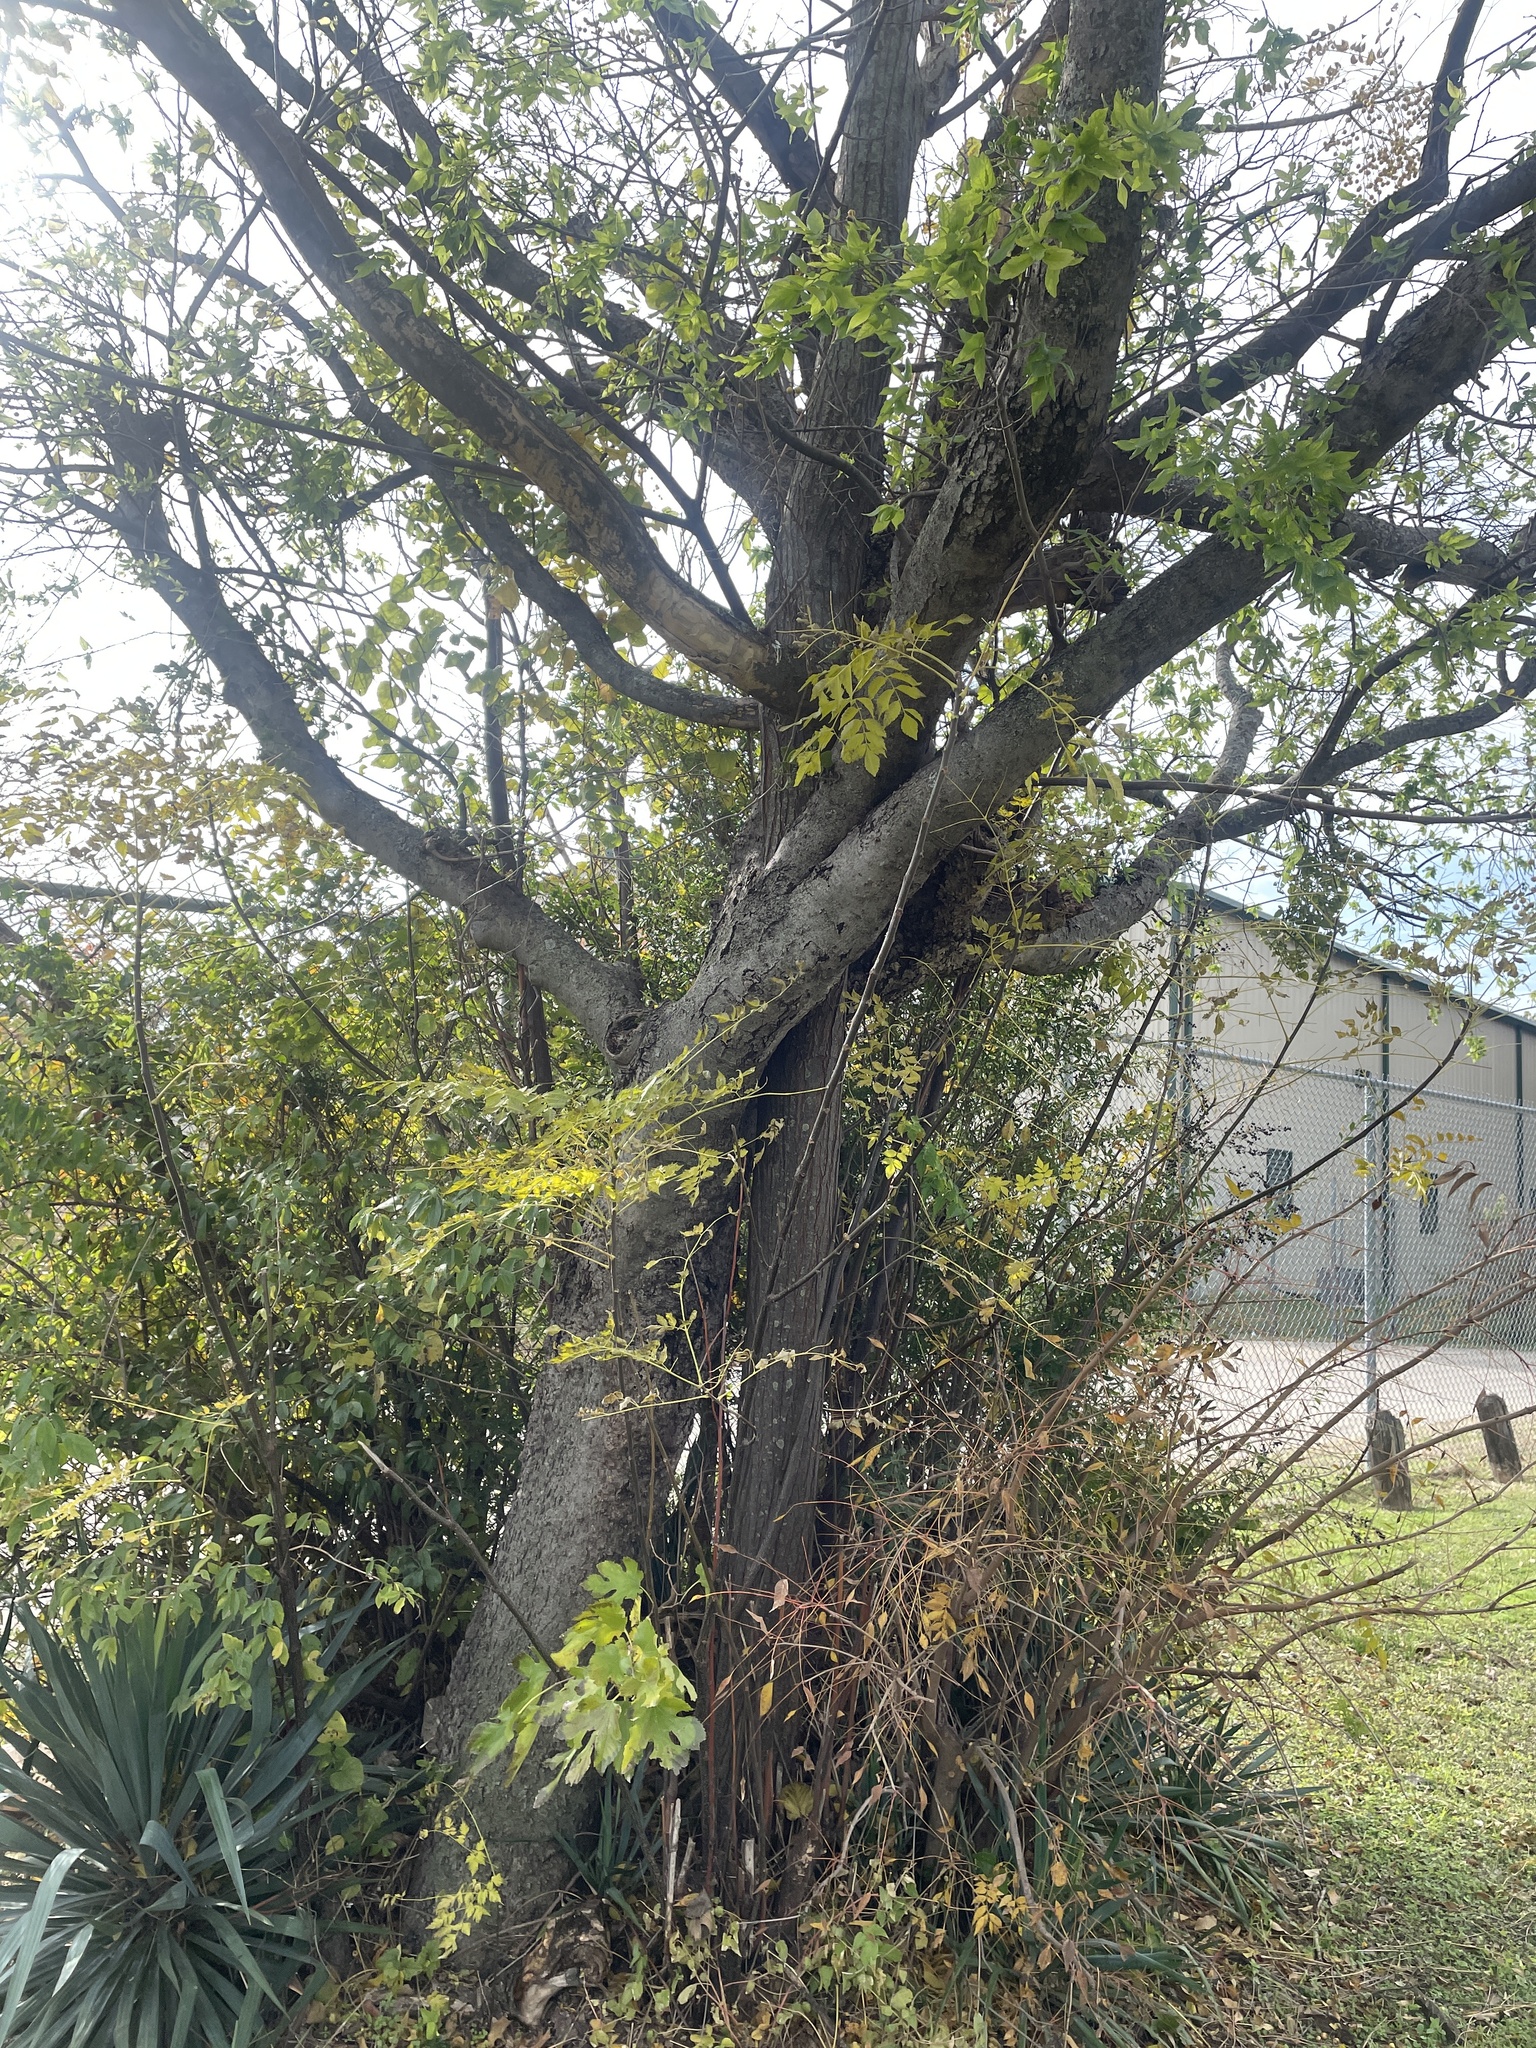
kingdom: Plantae
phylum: Tracheophyta
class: Magnoliopsida
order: Sapindales
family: Meliaceae
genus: Melia
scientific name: Melia azedarach
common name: Chinaberrytree
